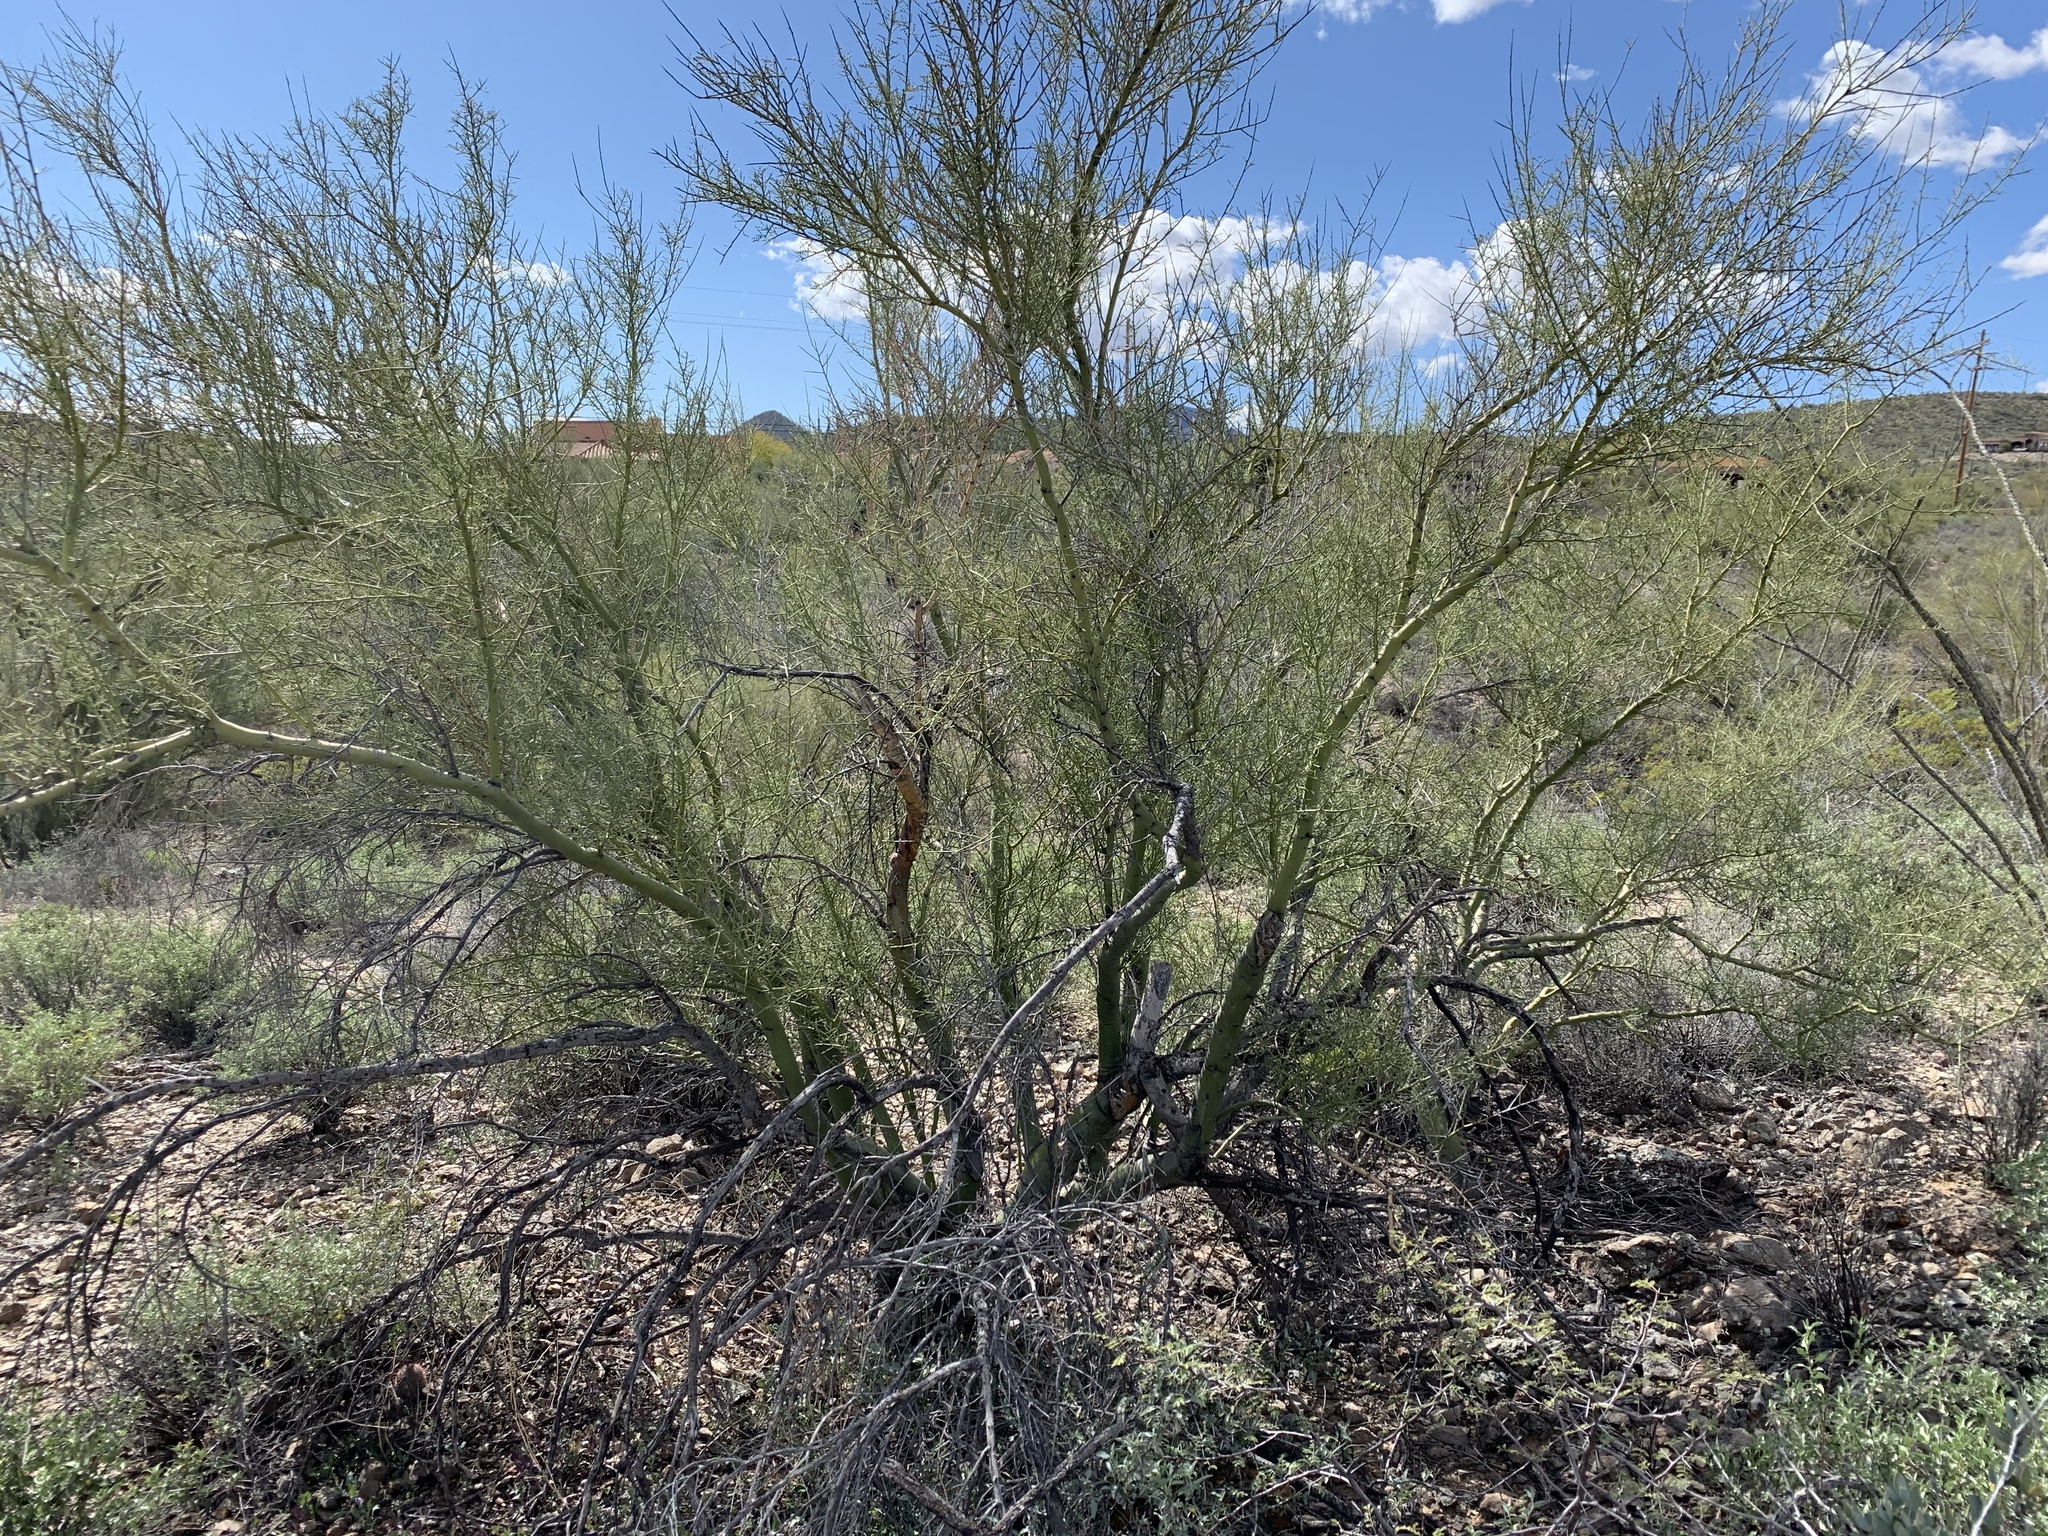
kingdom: Plantae
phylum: Tracheophyta
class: Magnoliopsida
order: Fabales
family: Fabaceae
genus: Parkinsonia
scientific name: Parkinsonia microphylla
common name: Yellow paloverde
